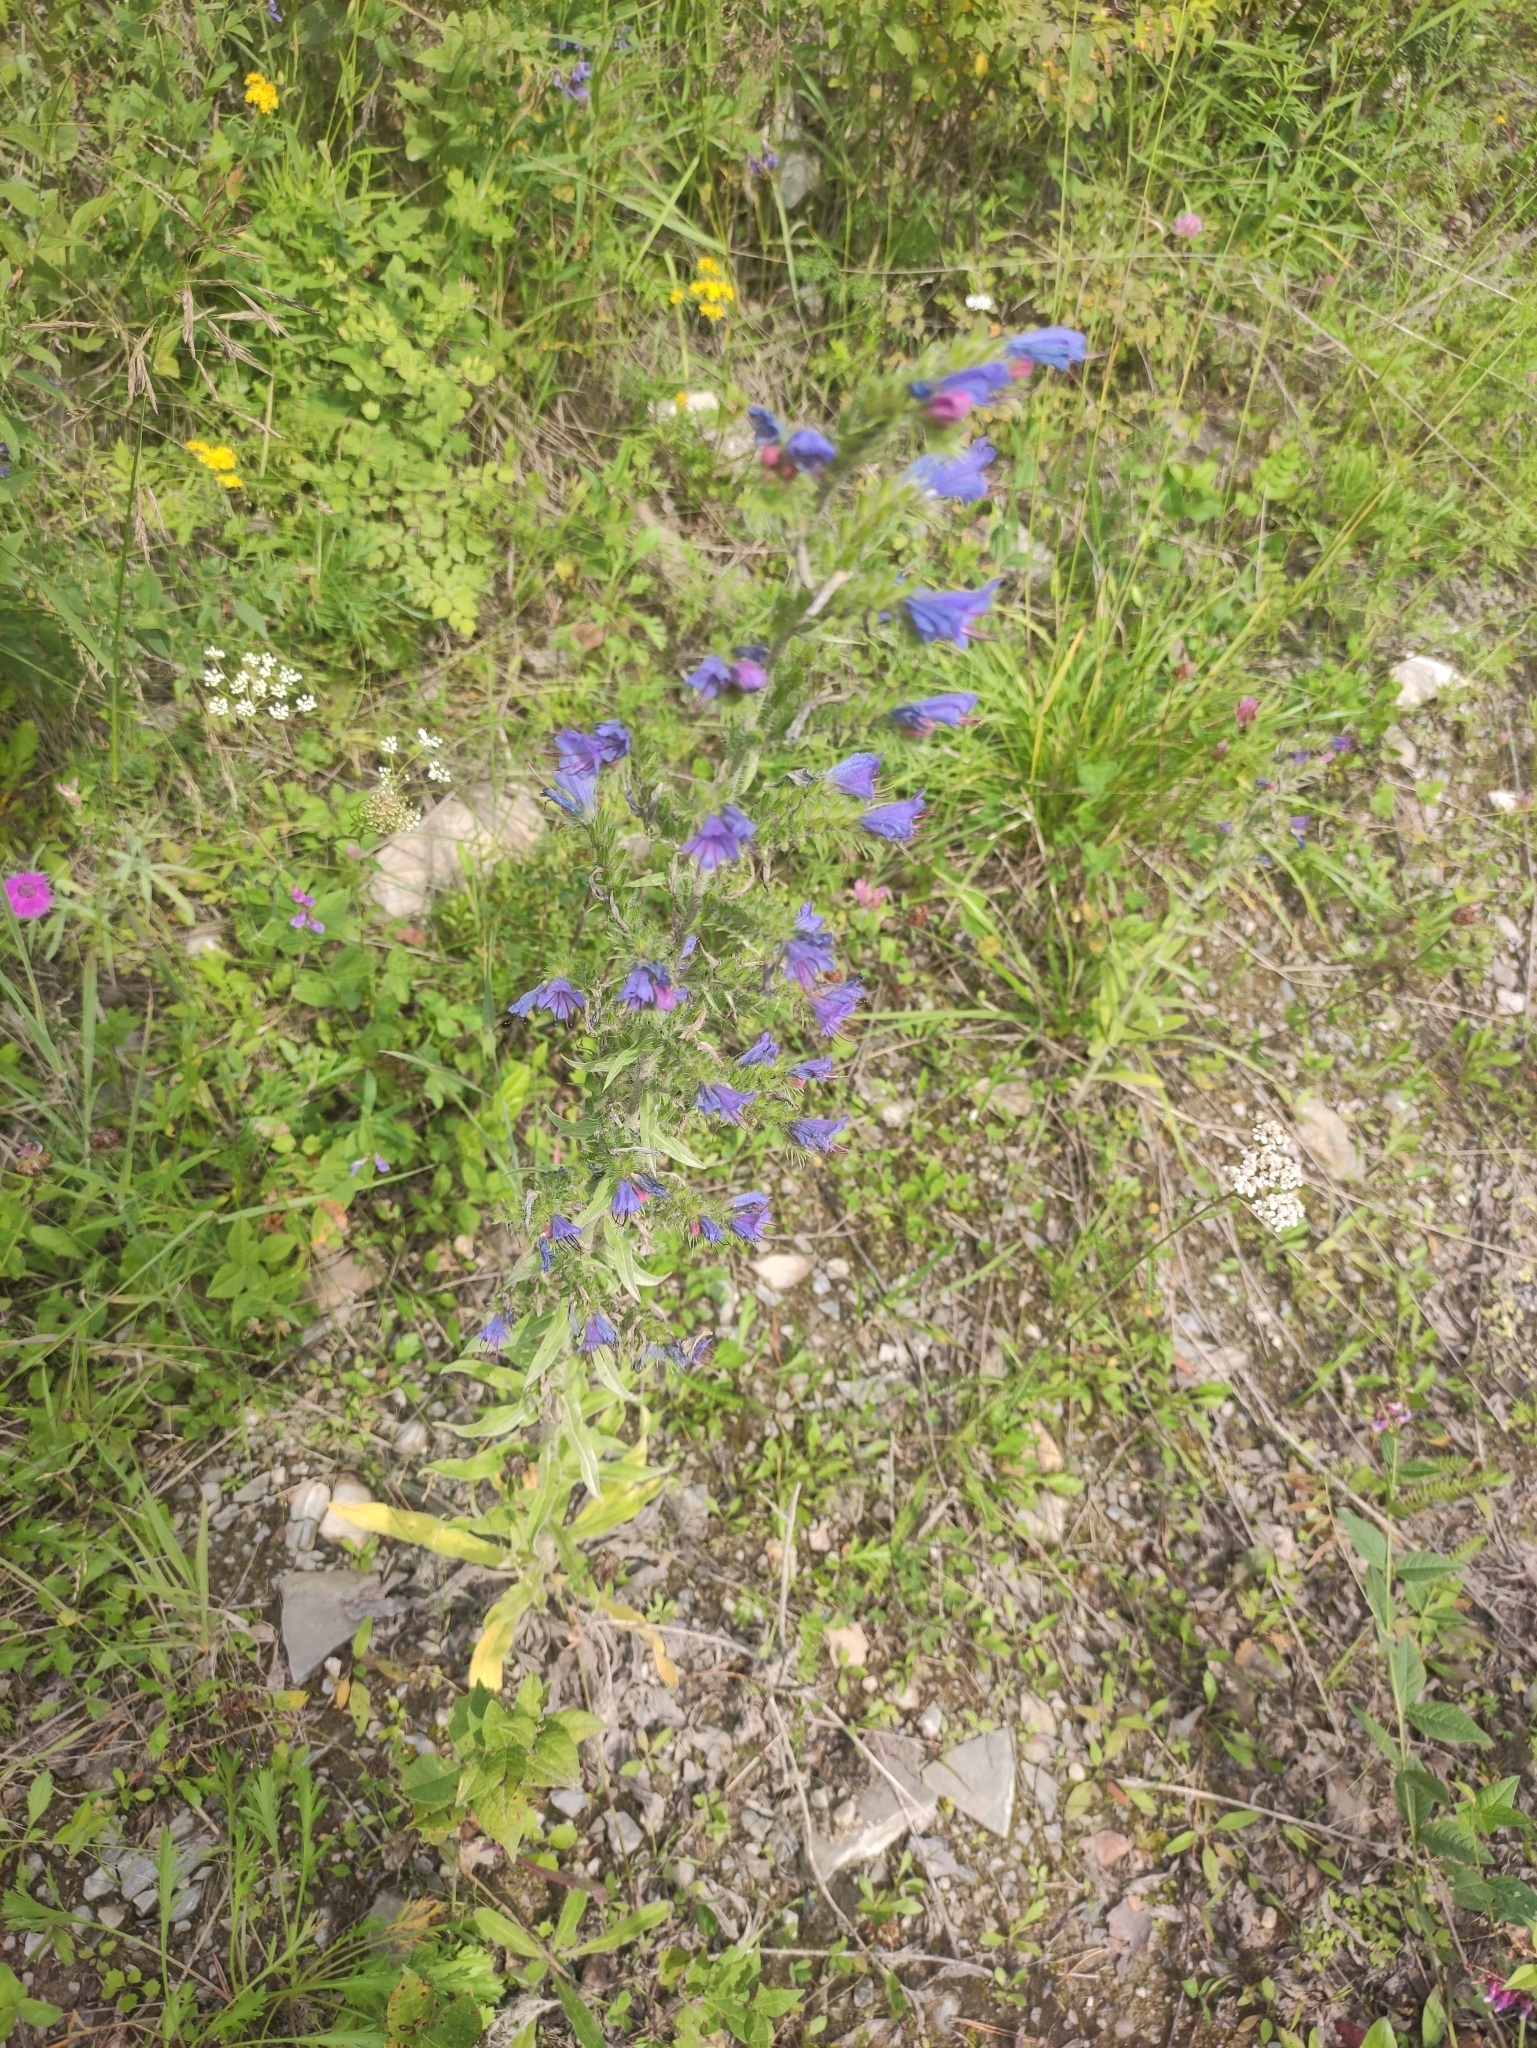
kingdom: Plantae
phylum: Tracheophyta
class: Magnoliopsida
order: Boraginales
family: Boraginaceae
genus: Echium
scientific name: Echium vulgare
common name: Common viper's bugloss
